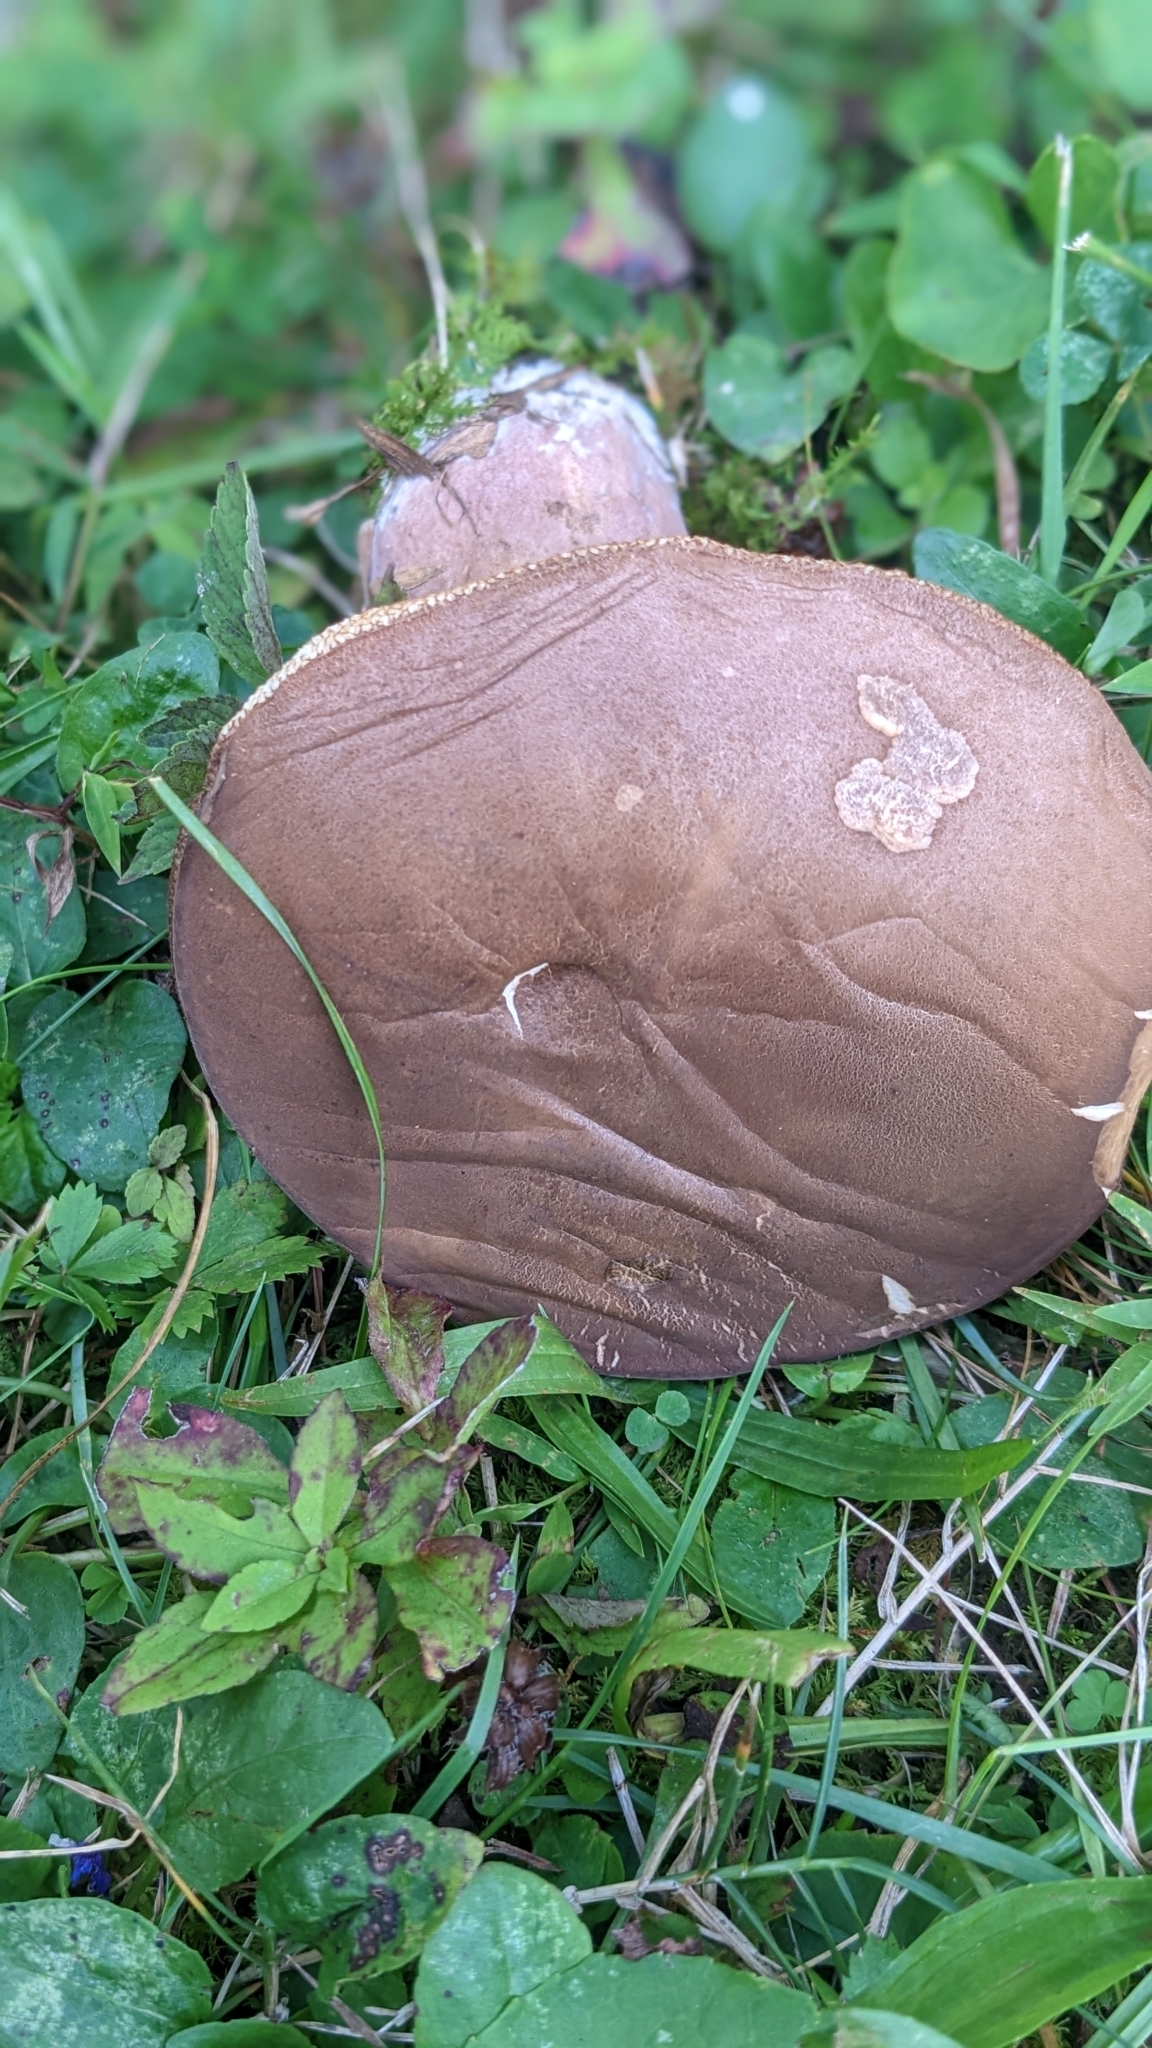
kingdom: Fungi
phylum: Basidiomycota
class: Agaricomycetes
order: Boletales
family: Boletaceae
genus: Tylopilus
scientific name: Tylopilus ferrugineus
